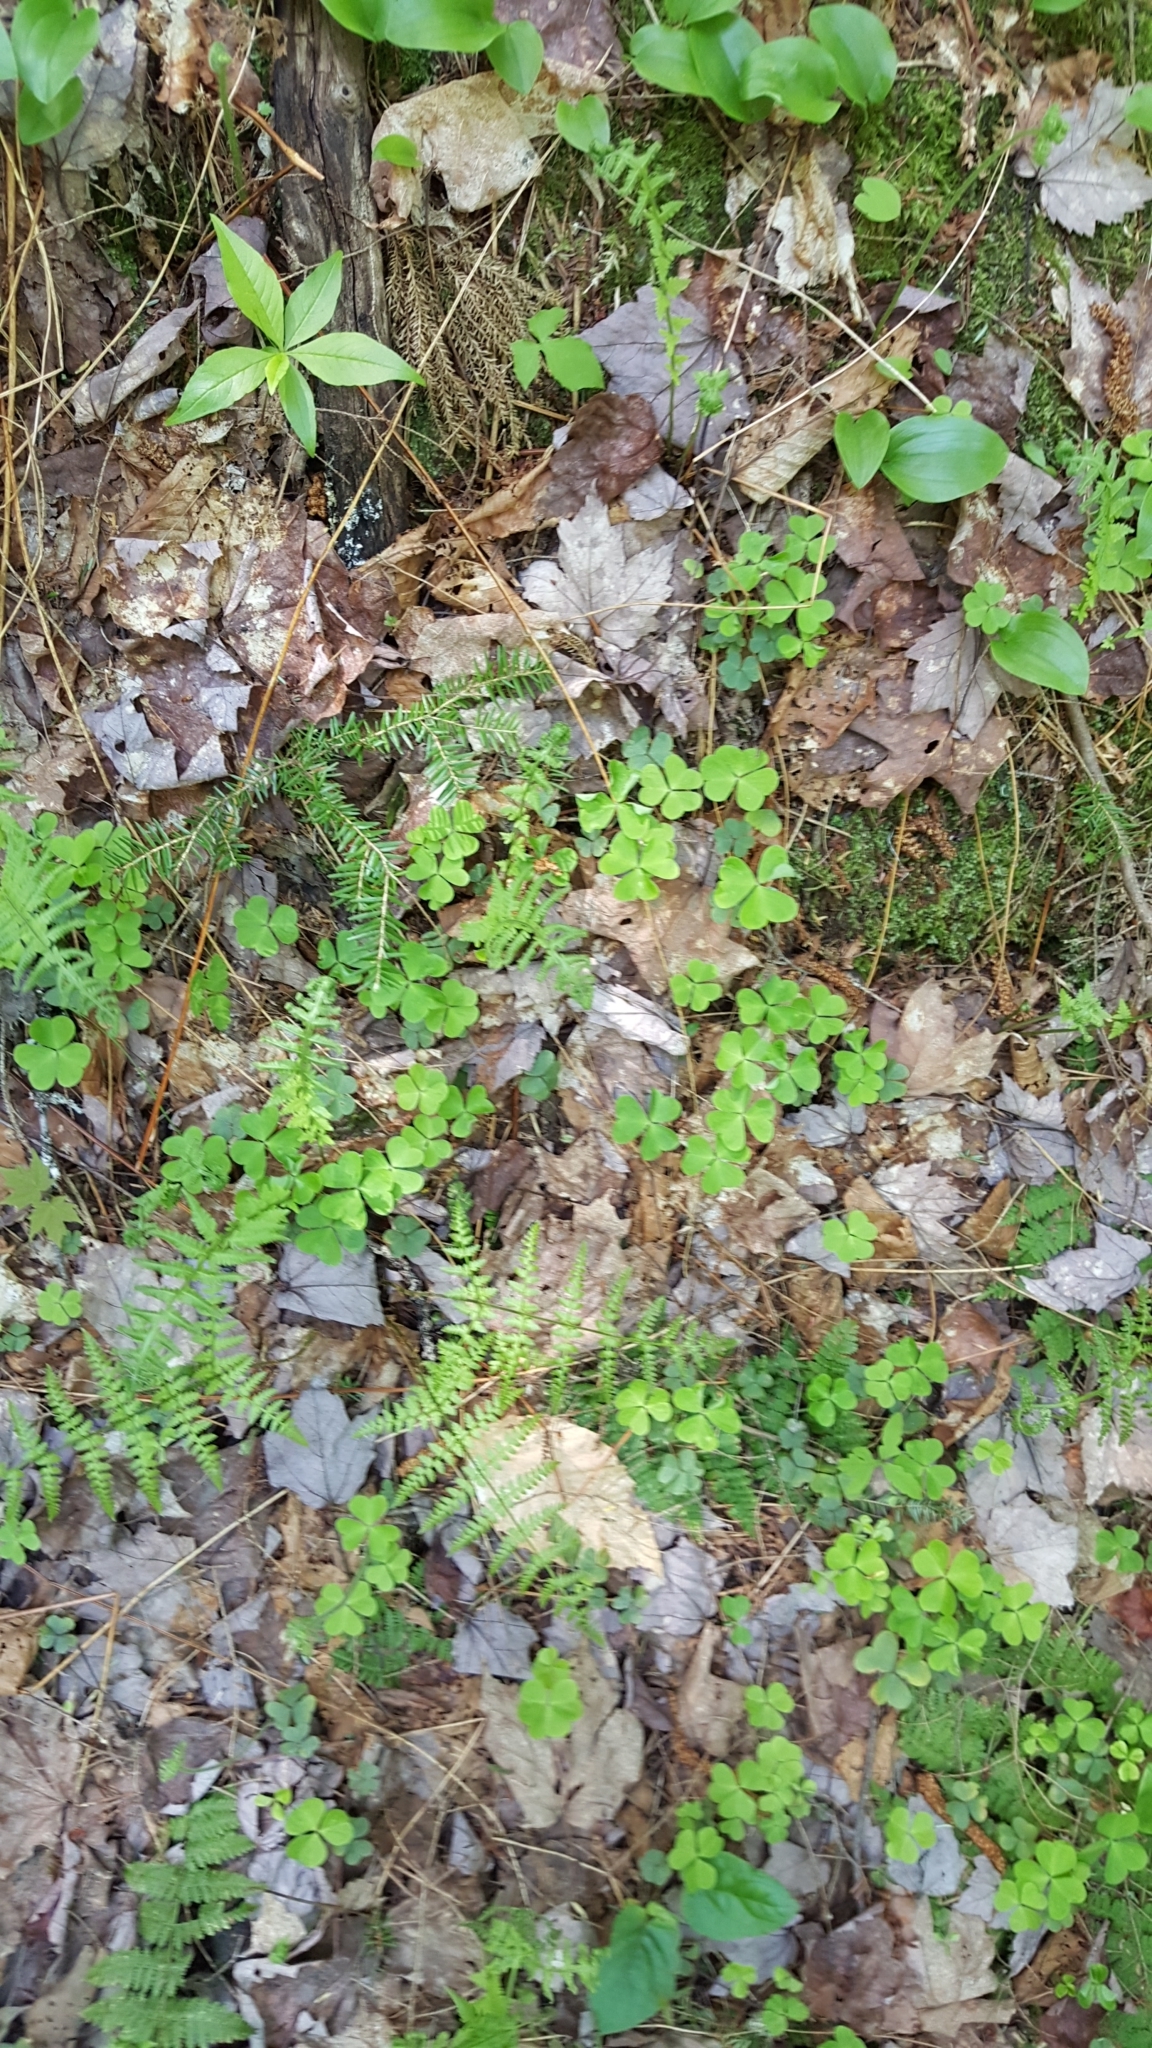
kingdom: Plantae
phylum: Tracheophyta
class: Magnoliopsida
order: Oxalidales
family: Oxalidaceae
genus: Oxalis
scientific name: Oxalis montana
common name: American wood-sorrel
